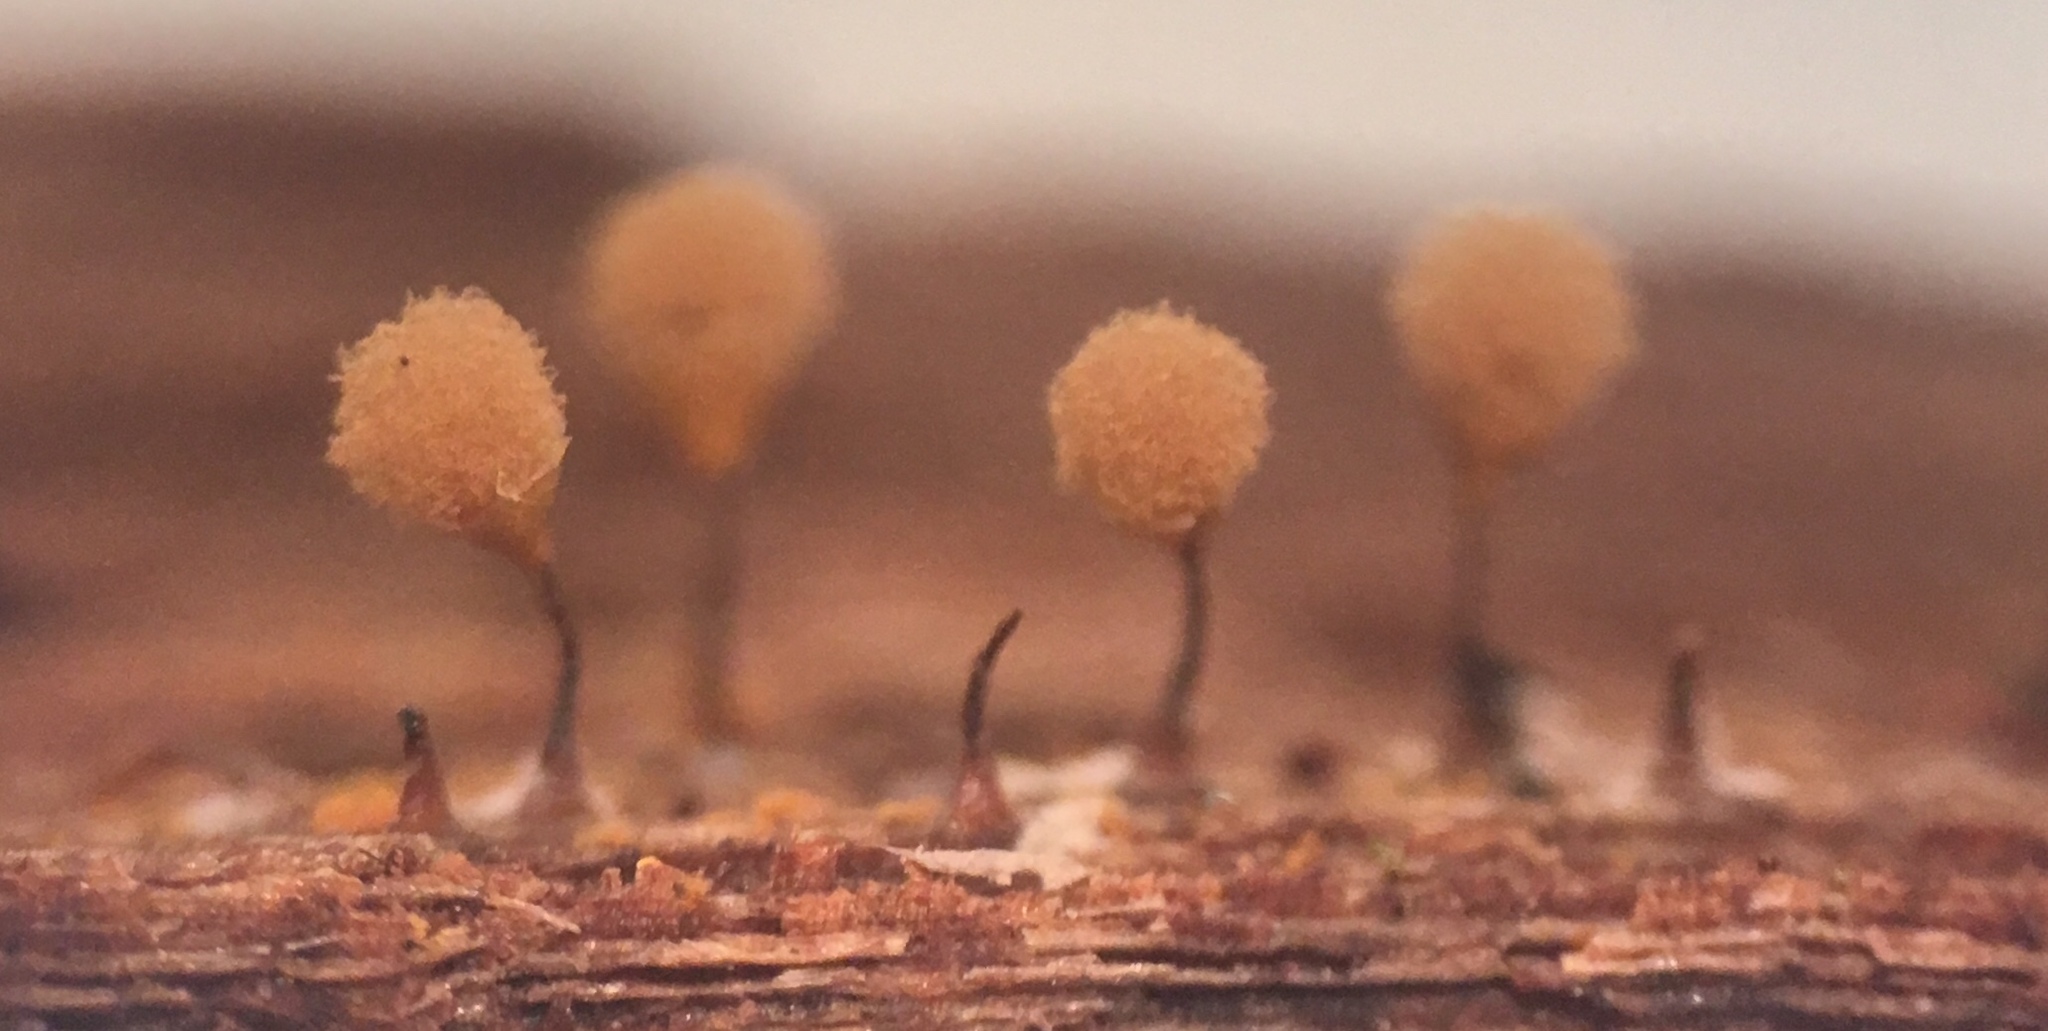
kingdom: Protozoa
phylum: Mycetozoa
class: Myxomycetes
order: Trichiales
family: Arcyriaceae
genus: Hemitrichia
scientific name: Hemitrichia calyculata
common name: Push pin slime mold
